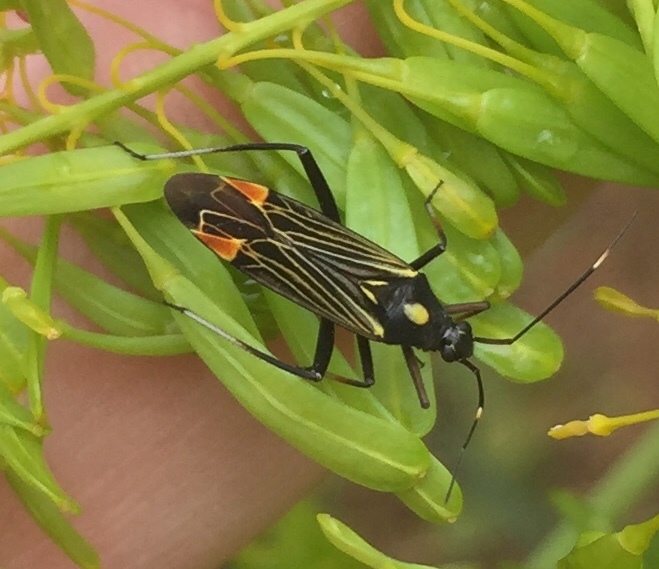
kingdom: Animalia
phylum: Arthropoda
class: Insecta
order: Hemiptera
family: Miridae
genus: Miris
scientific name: Miris striatus
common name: Fine streaked bugkin
